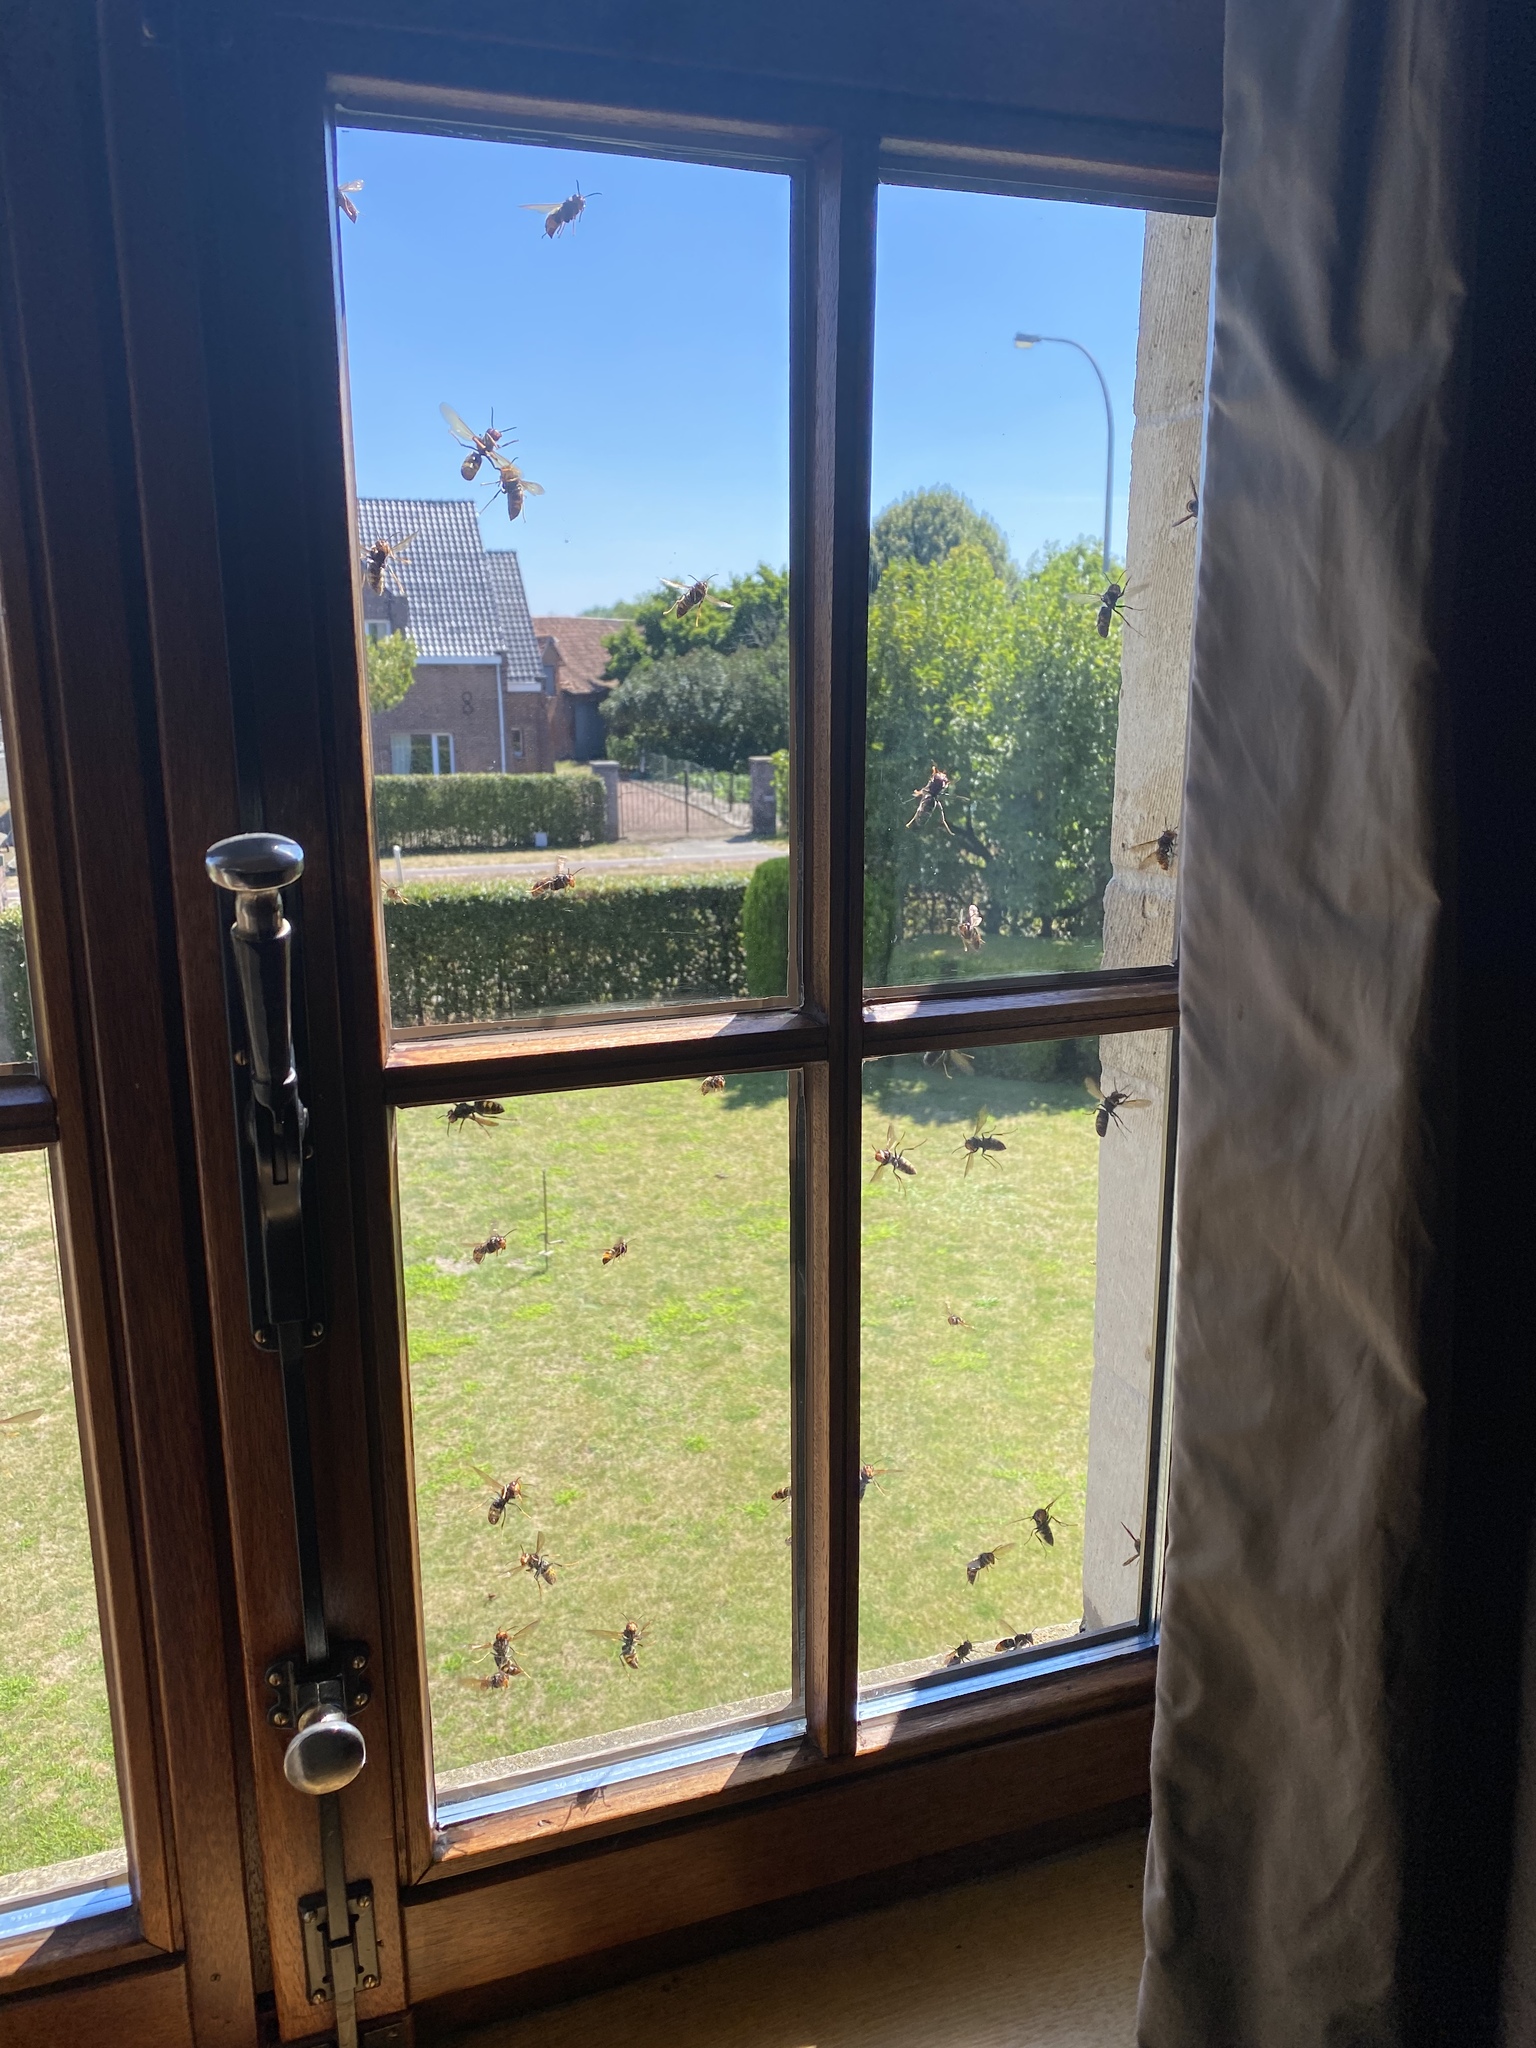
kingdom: Animalia
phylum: Arthropoda
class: Insecta
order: Hymenoptera
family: Vespidae
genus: Vespa
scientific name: Vespa velutina
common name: Asian hornet
